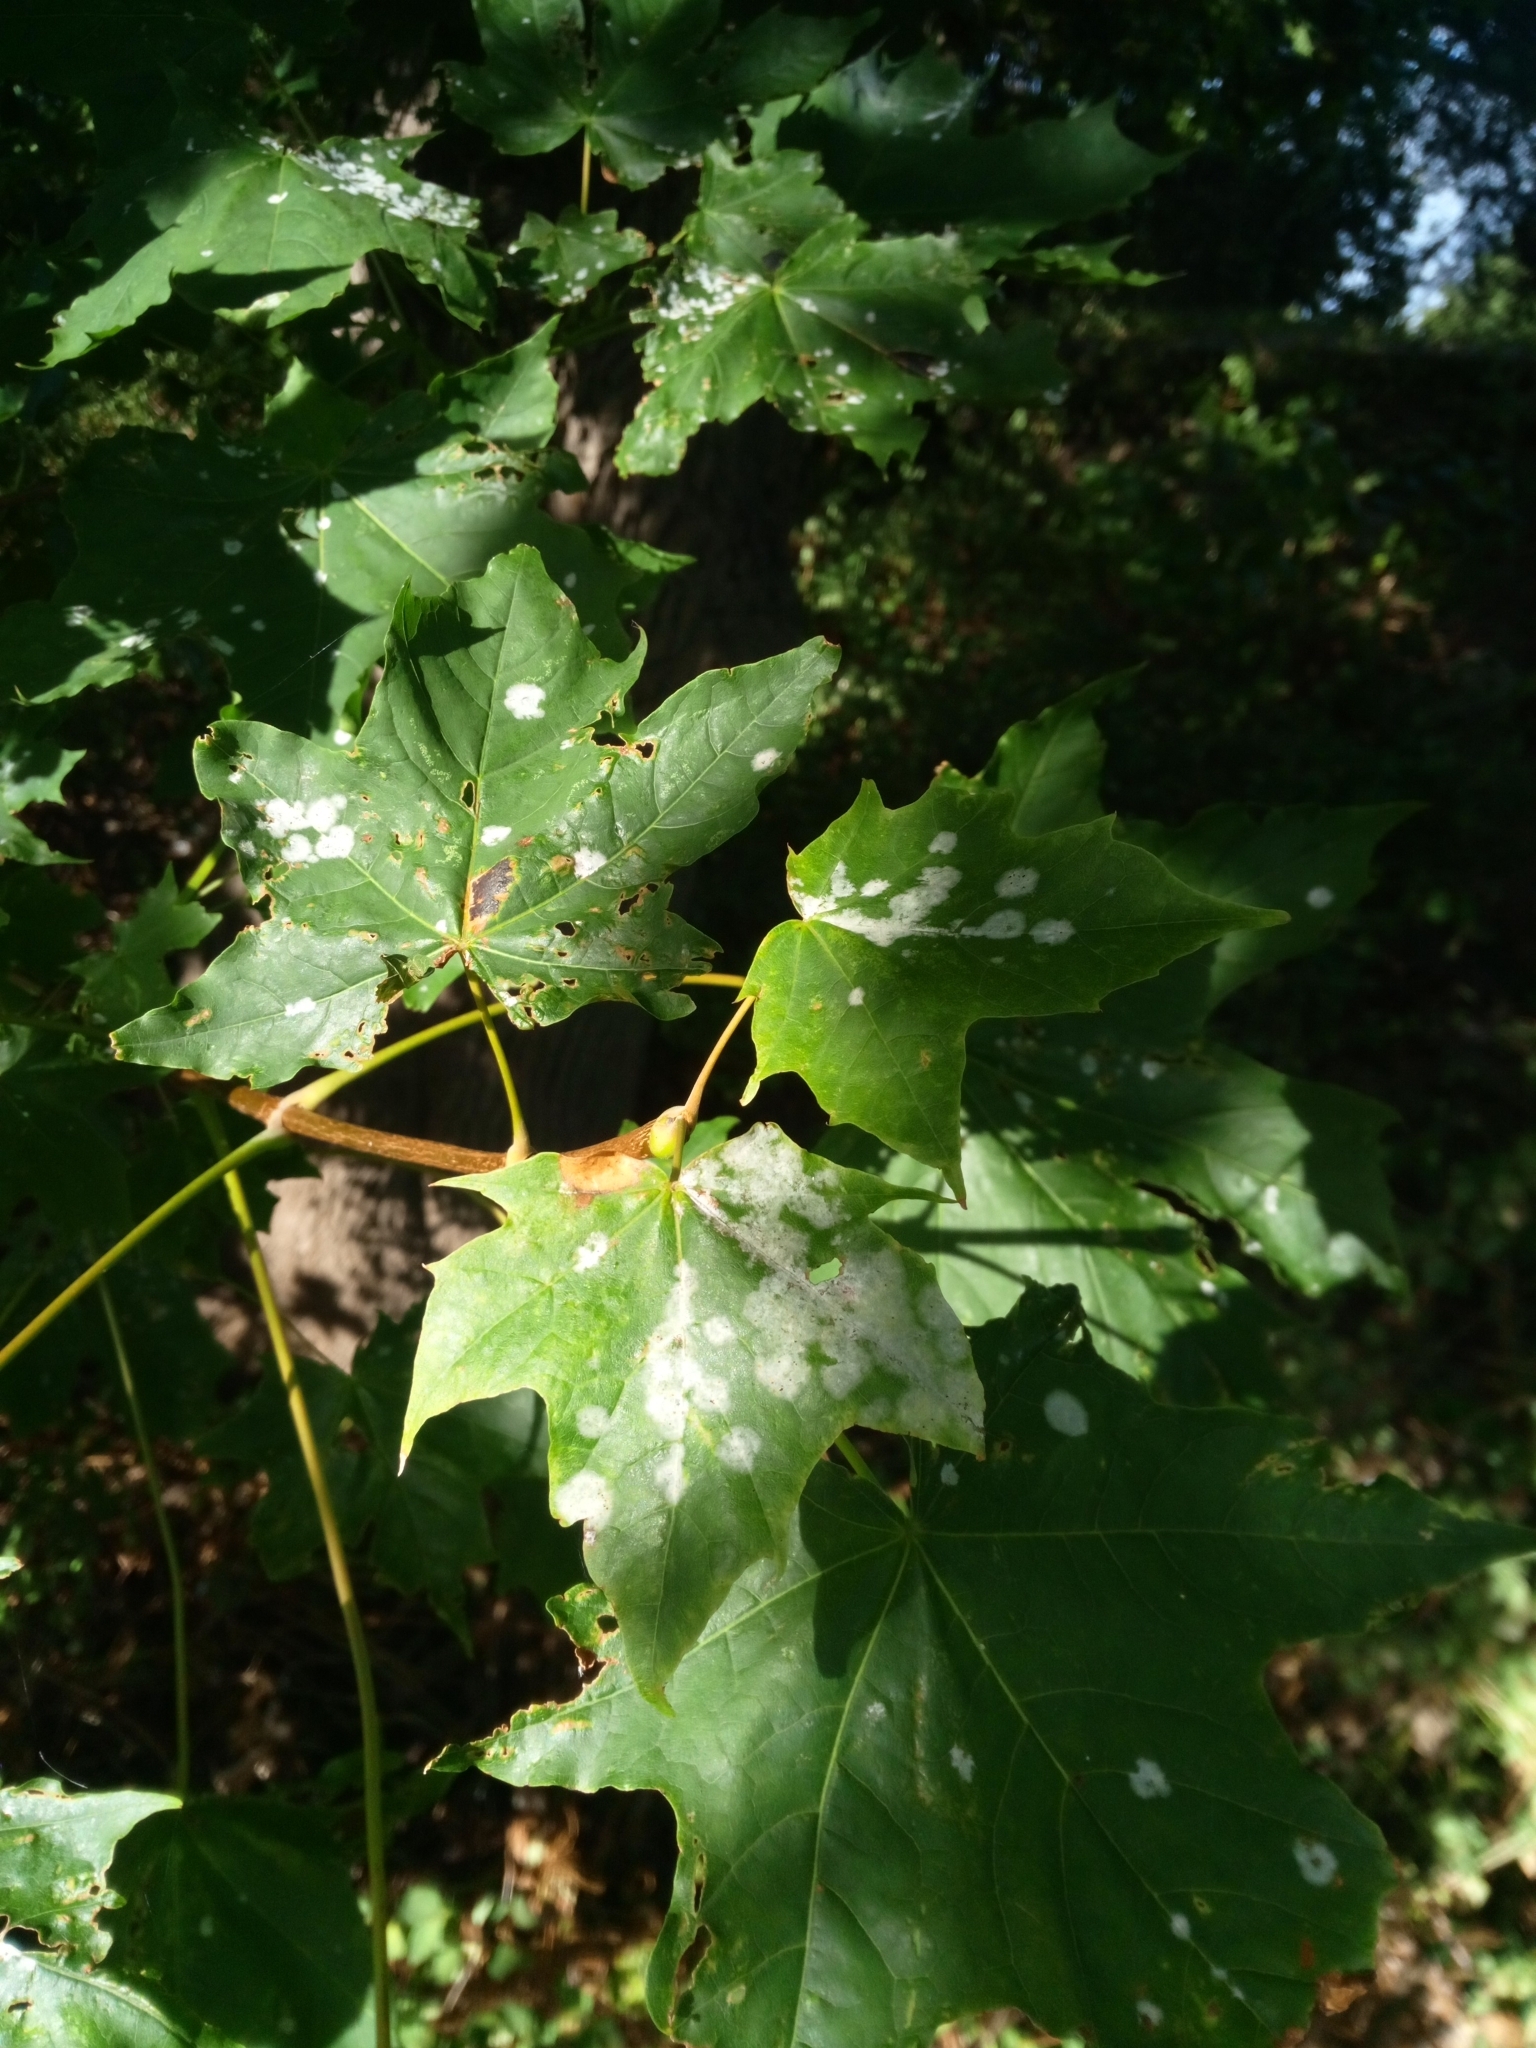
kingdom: Fungi
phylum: Ascomycota
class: Leotiomycetes
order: Helotiales
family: Erysiphaceae
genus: Sawadaea
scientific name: Sawadaea tulasnei
